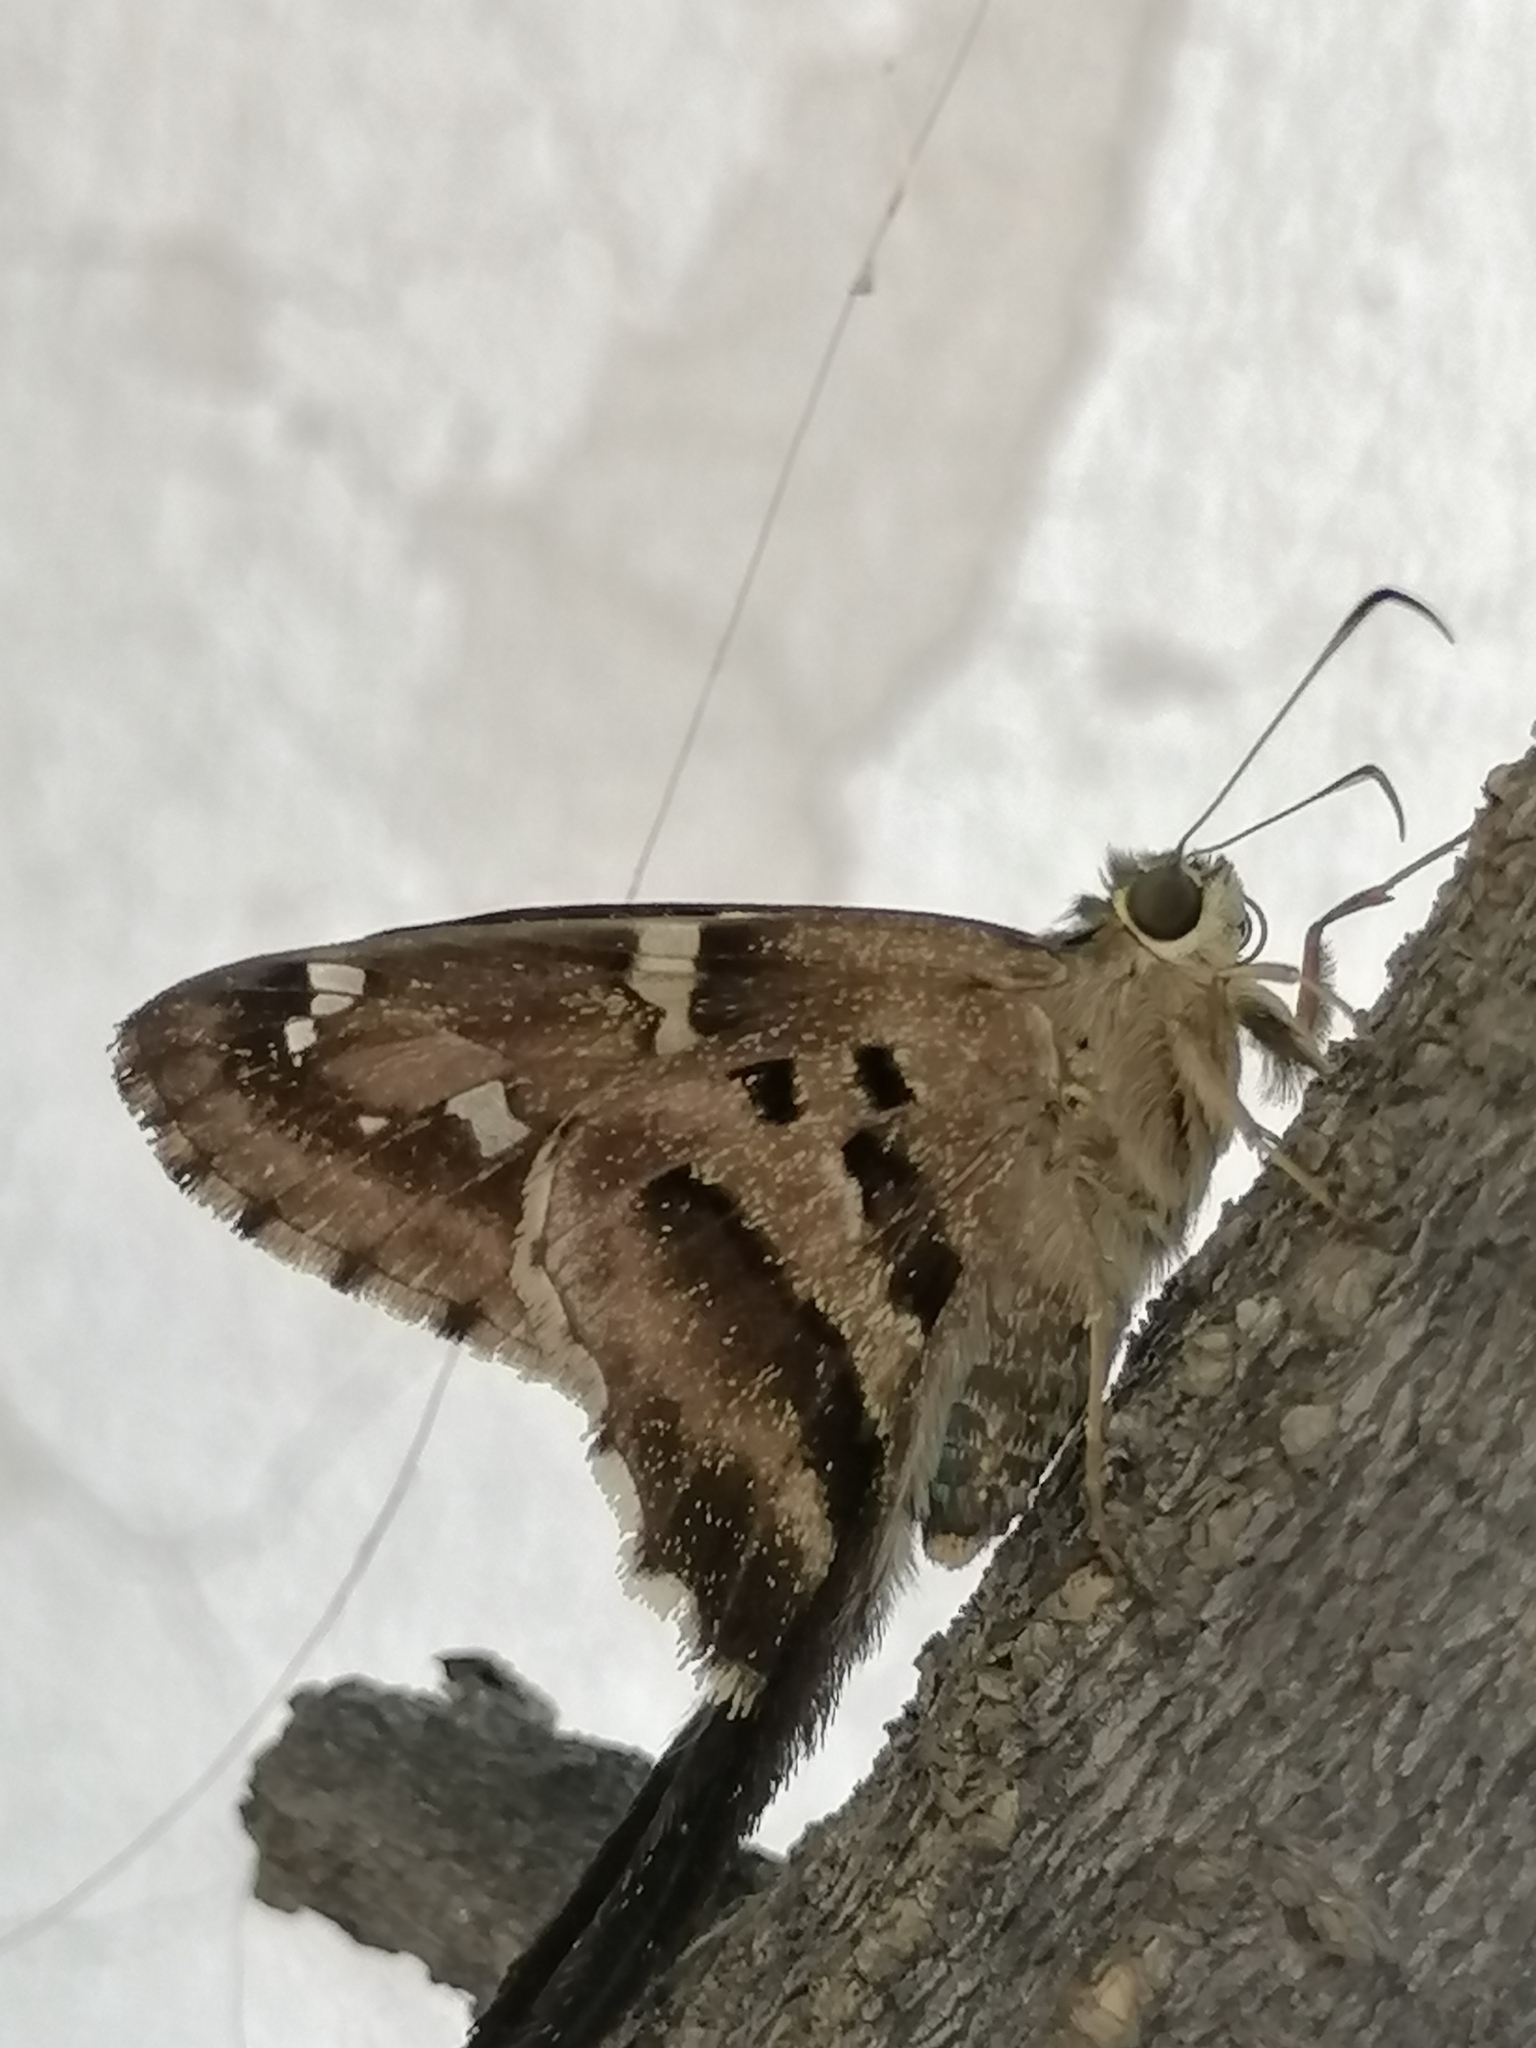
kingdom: Animalia
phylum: Arthropoda
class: Insecta
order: Lepidoptera
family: Hesperiidae
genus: Urbanus
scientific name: Urbanus proteus
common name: Long-tailed skipper
